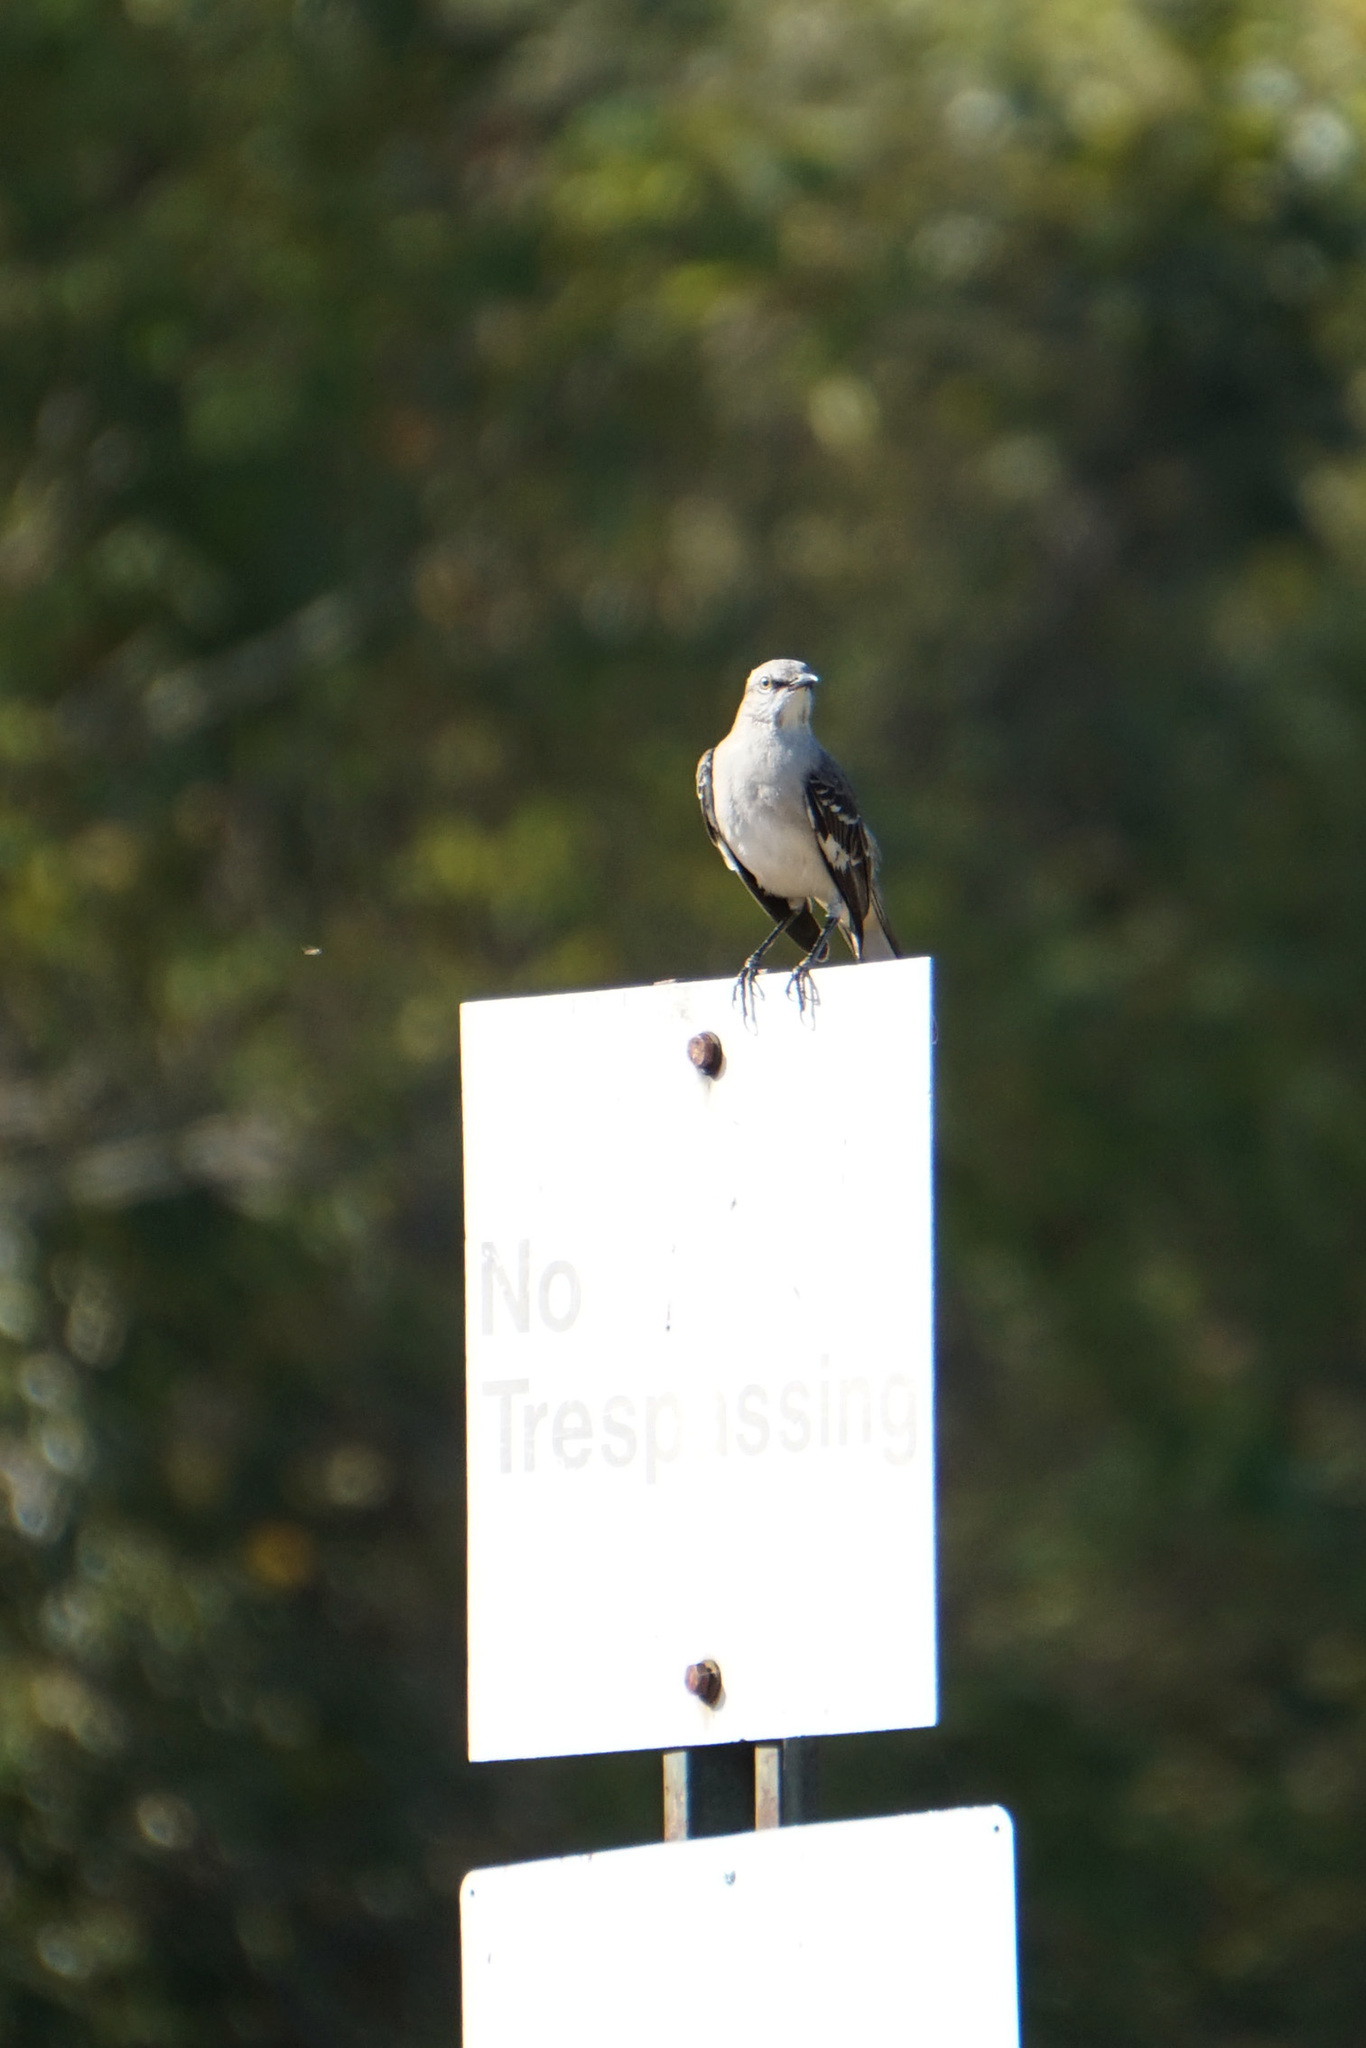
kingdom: Animalia
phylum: Chordata
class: Aves
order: Passeriformes
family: Mimidae
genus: Mimus
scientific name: Mimus polyglottos
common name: Northern mockingbird
